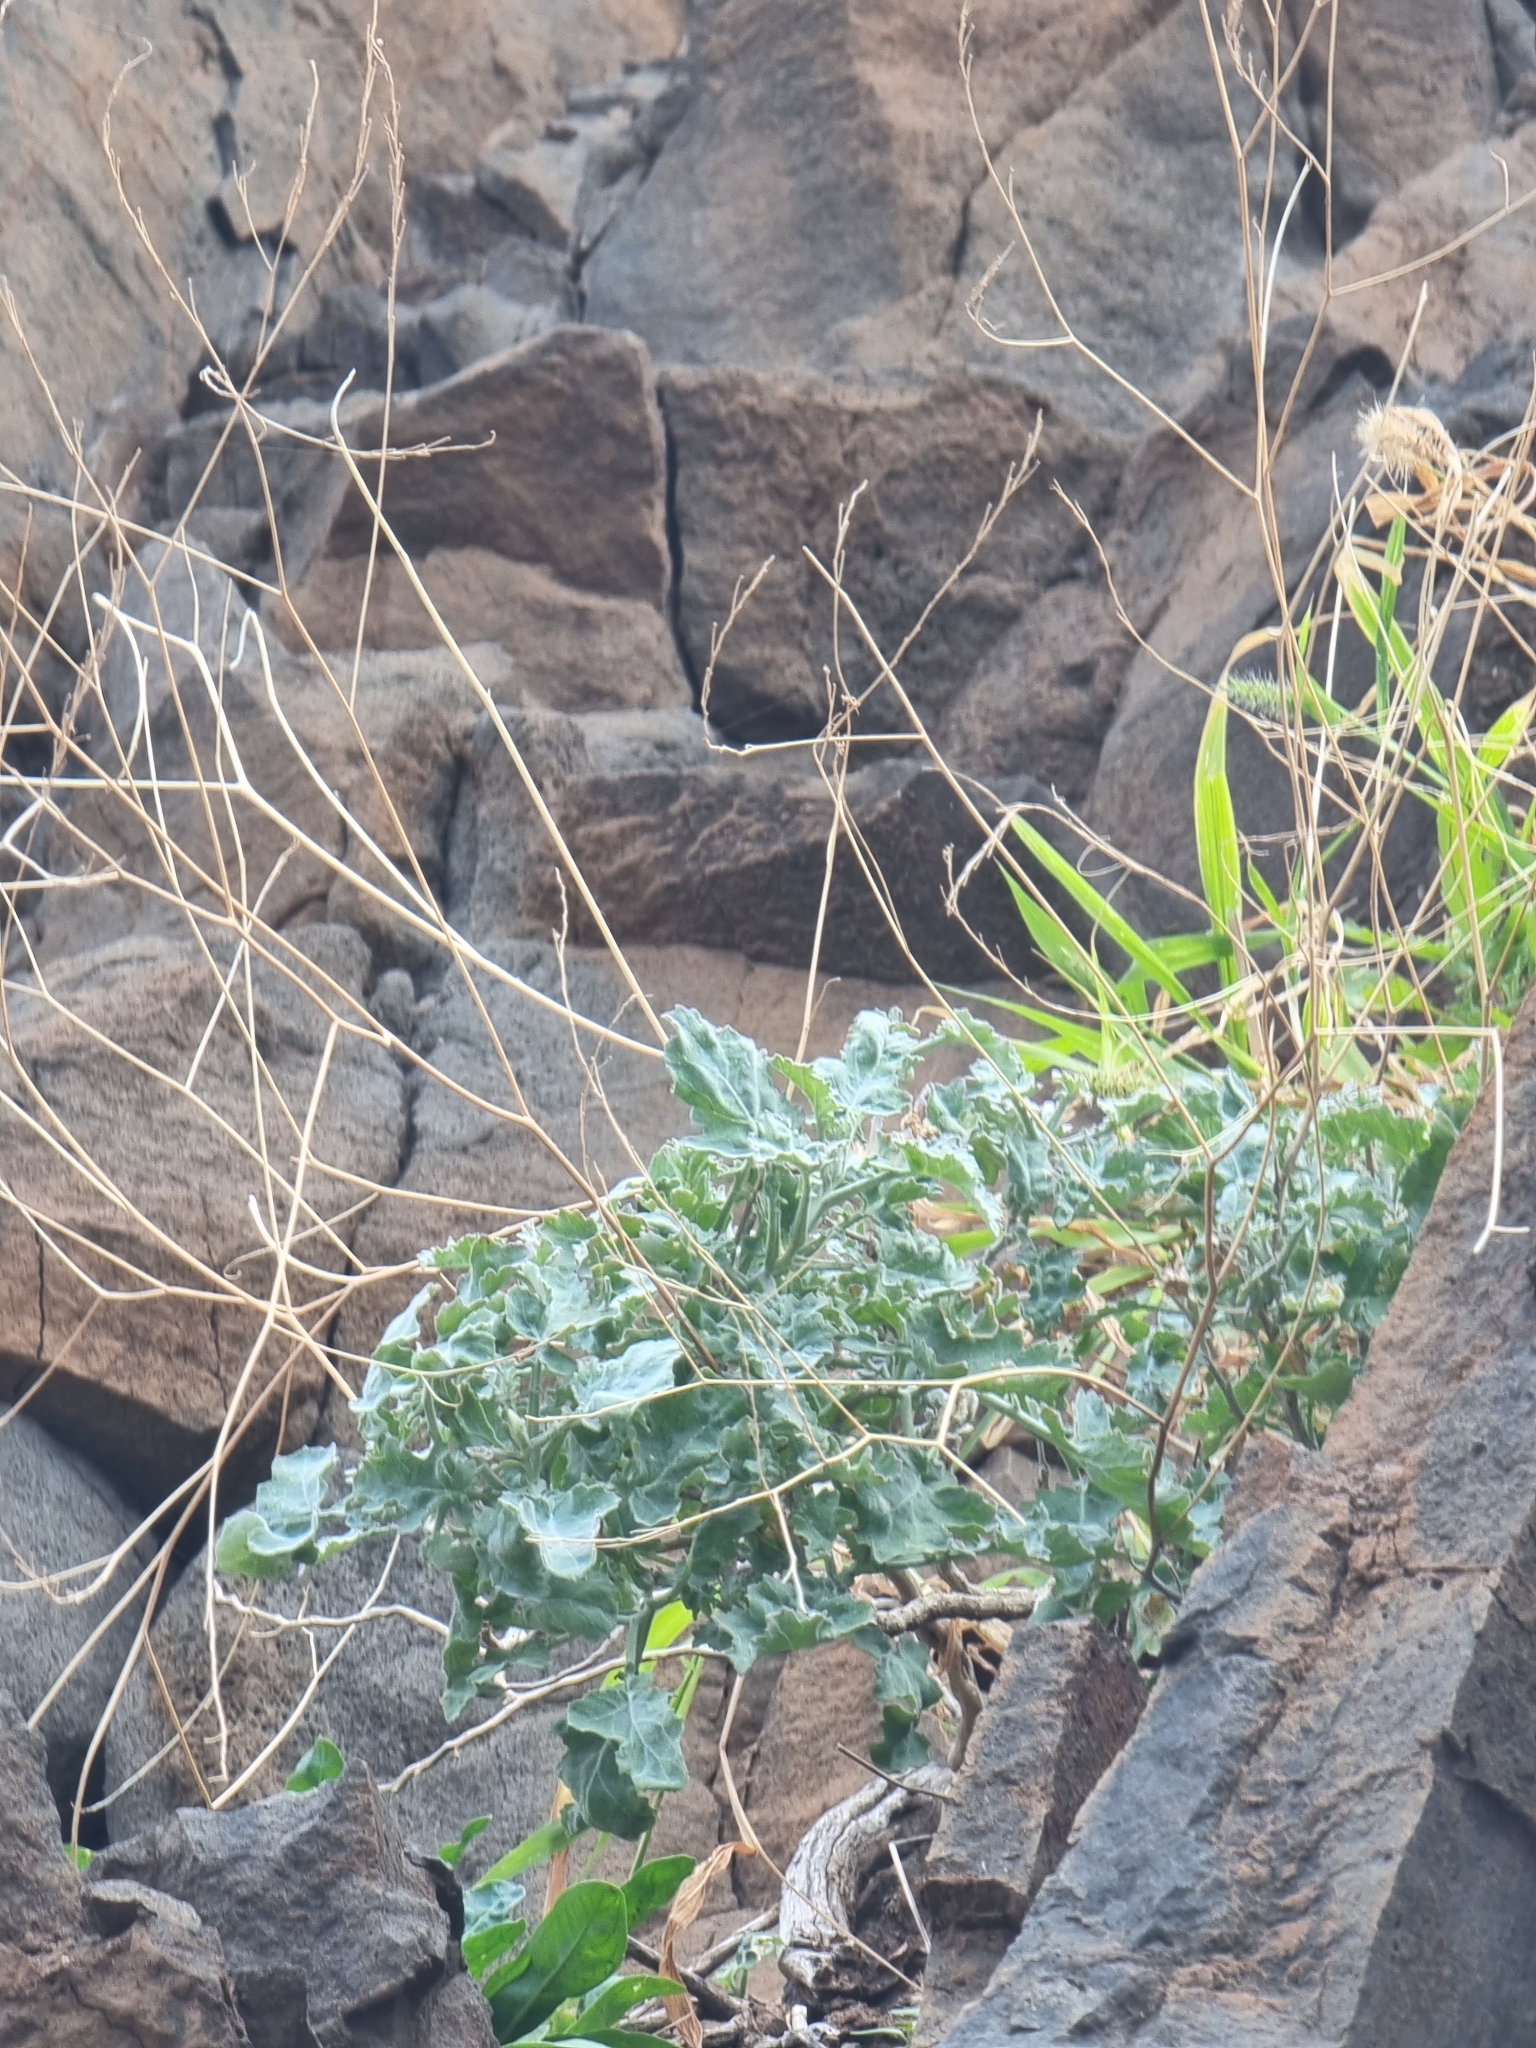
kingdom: Plantae
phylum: Tracheophyta
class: Magnoliopsida
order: Brassicales
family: Brassicaceae
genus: Crambe
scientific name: Crambe fruticosa
